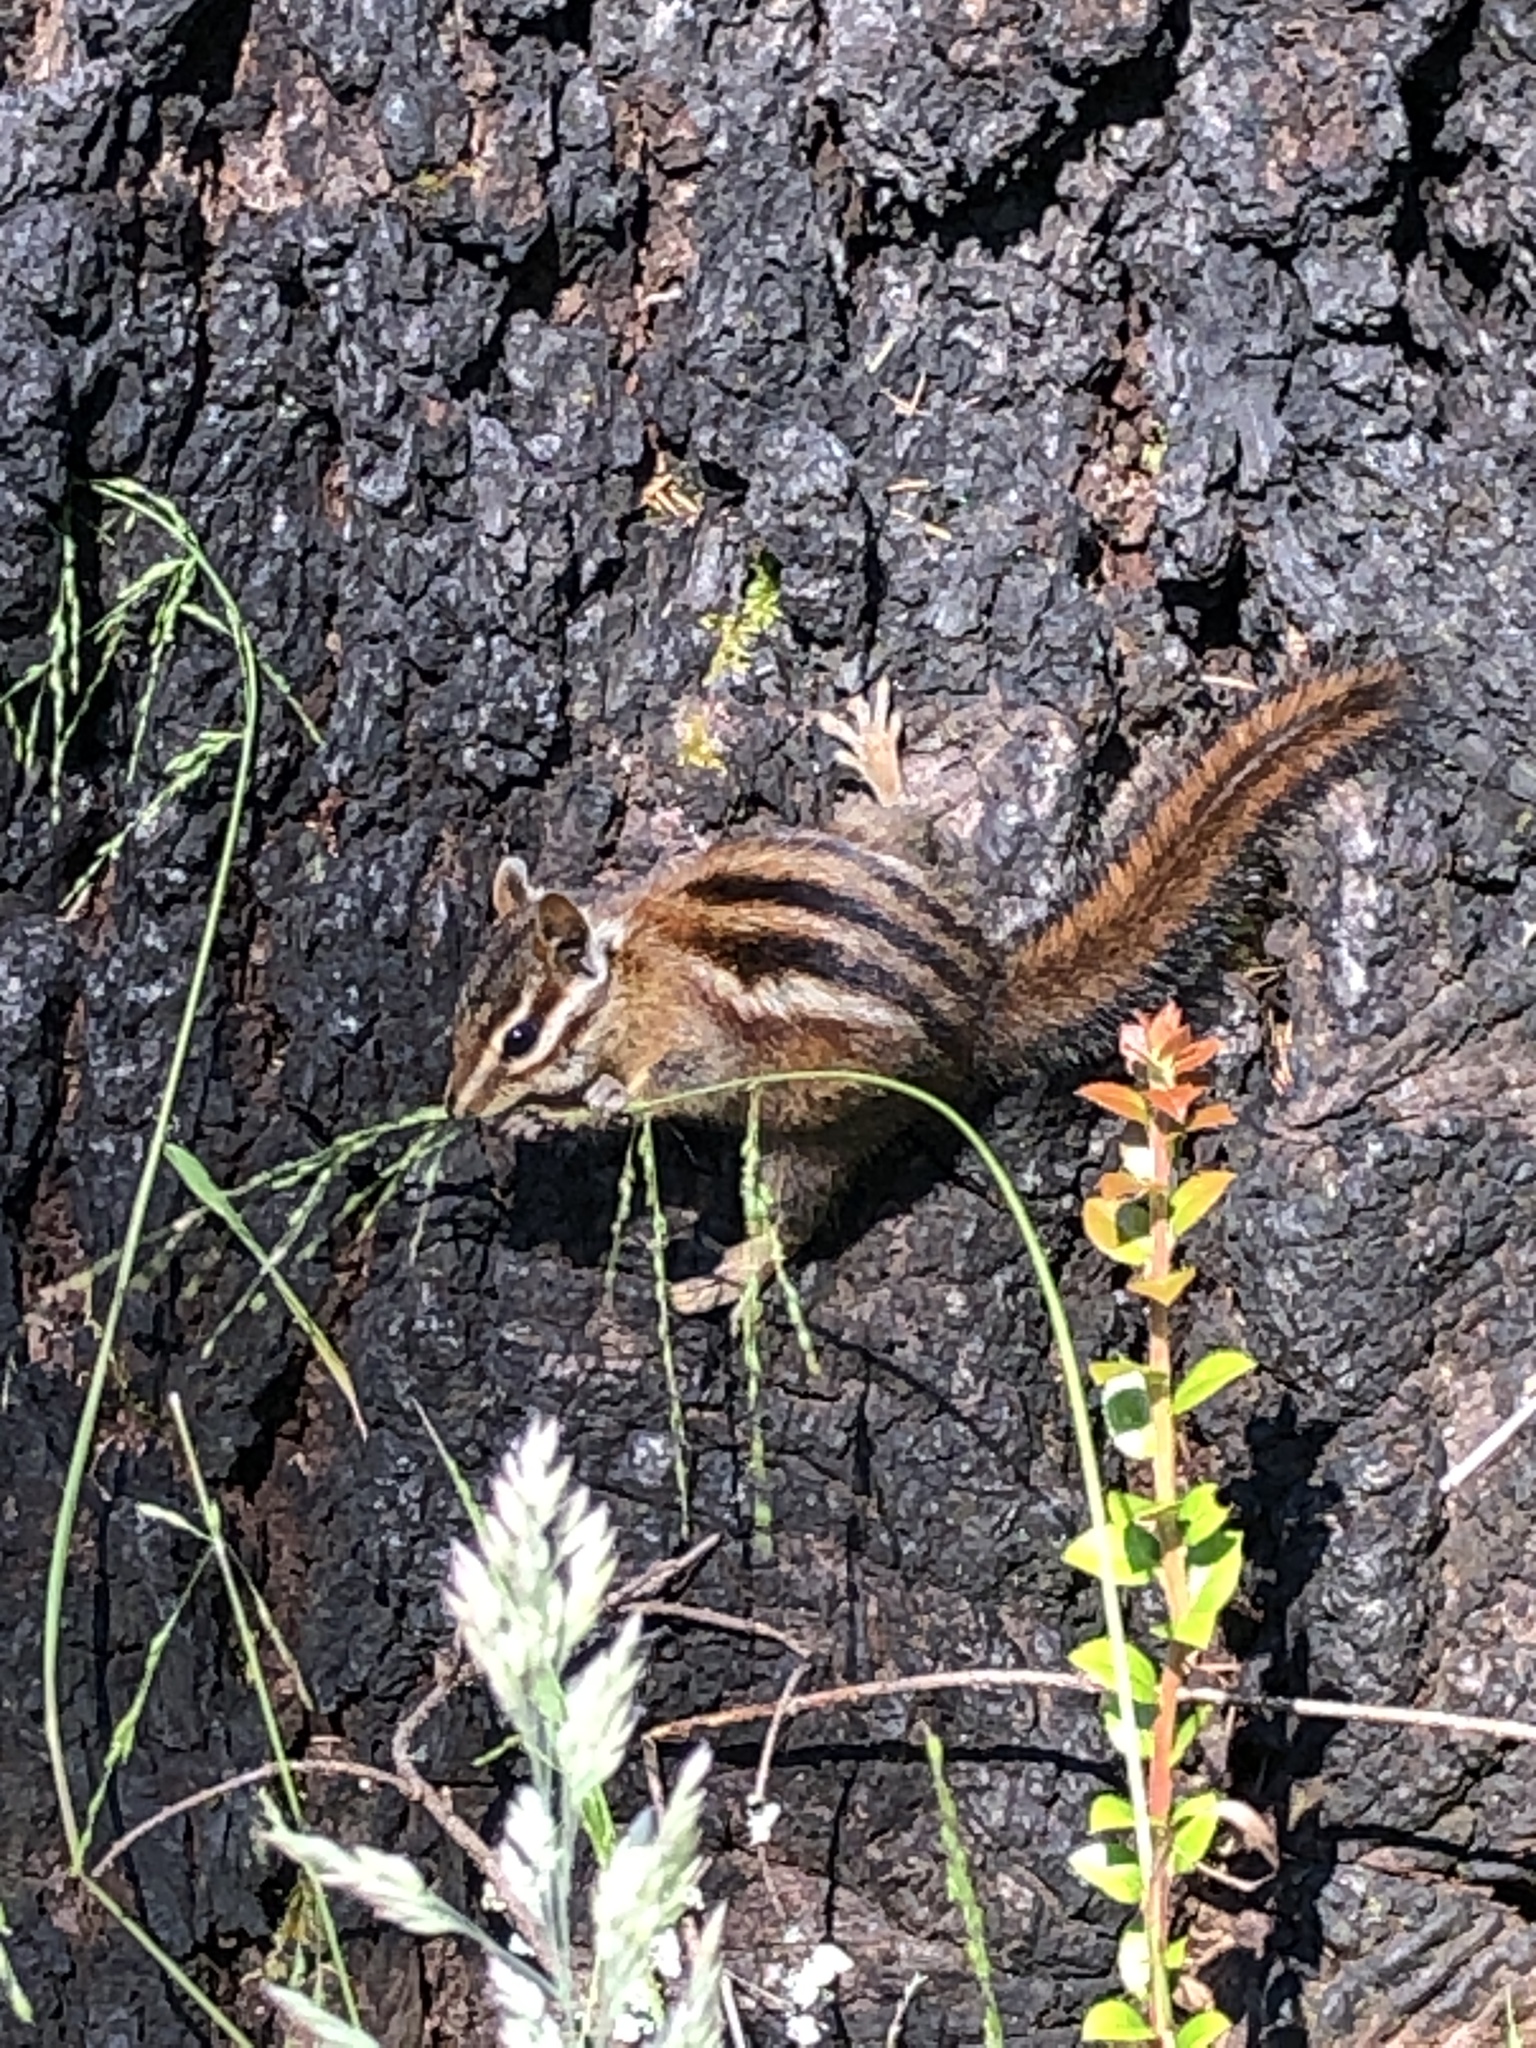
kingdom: Animalia
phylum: Chordata
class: Mammalia
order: Rodentia
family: Sciuridae
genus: Tamias
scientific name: Tamias sonomae
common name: Sonoma chipmunk
